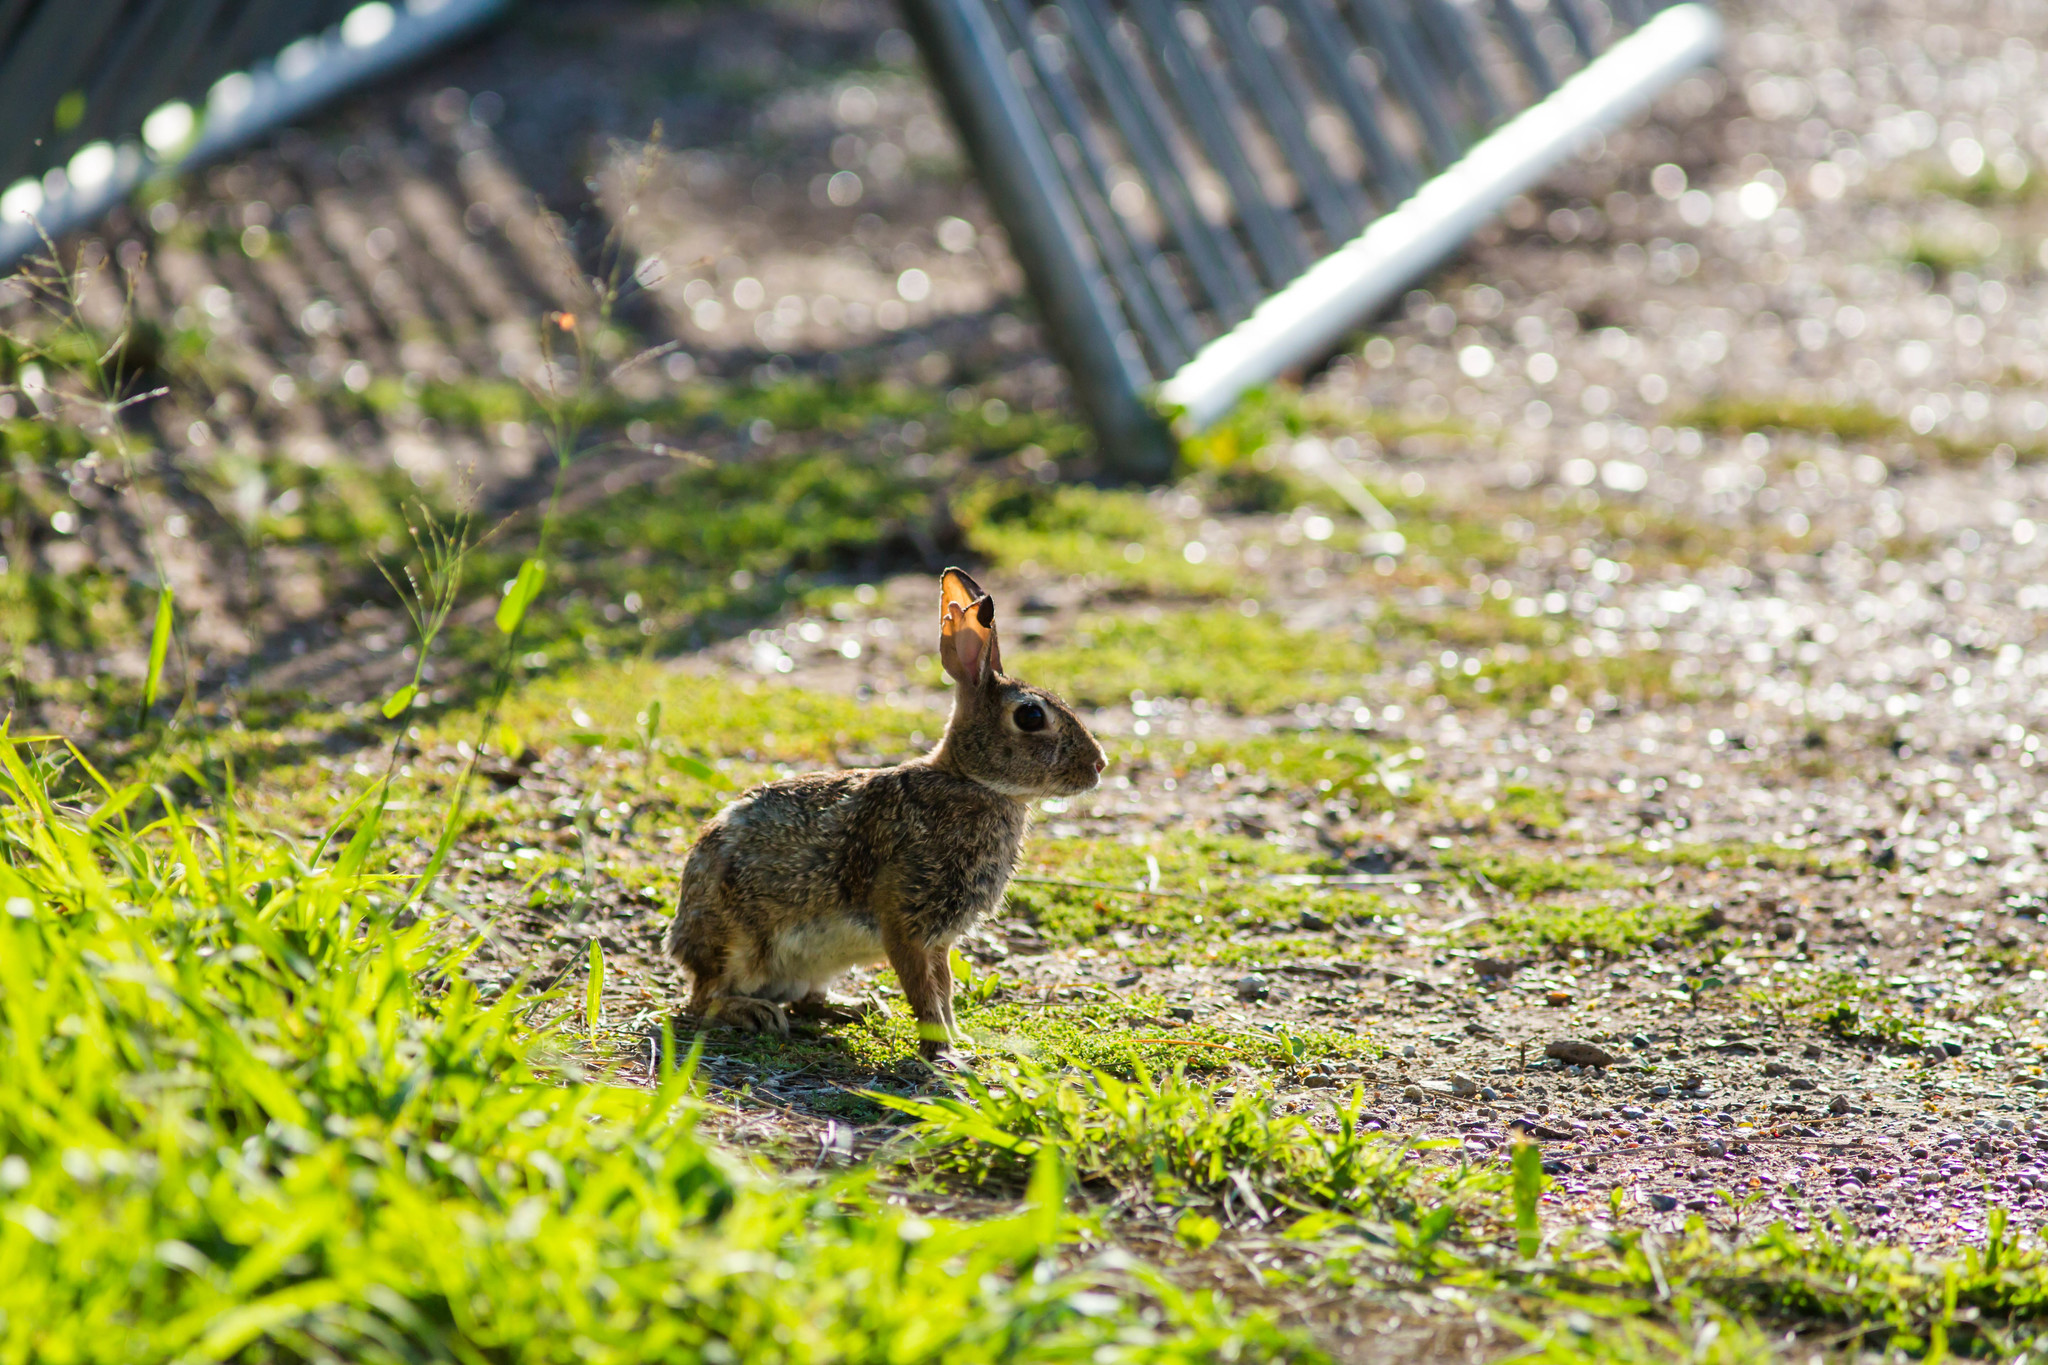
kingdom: Animalia
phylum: Chordata
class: Mammalia
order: Lagomorpha
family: Leporidae
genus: Sylvilagus
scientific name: Sylvilagus floridanus
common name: Eastern cottontail
